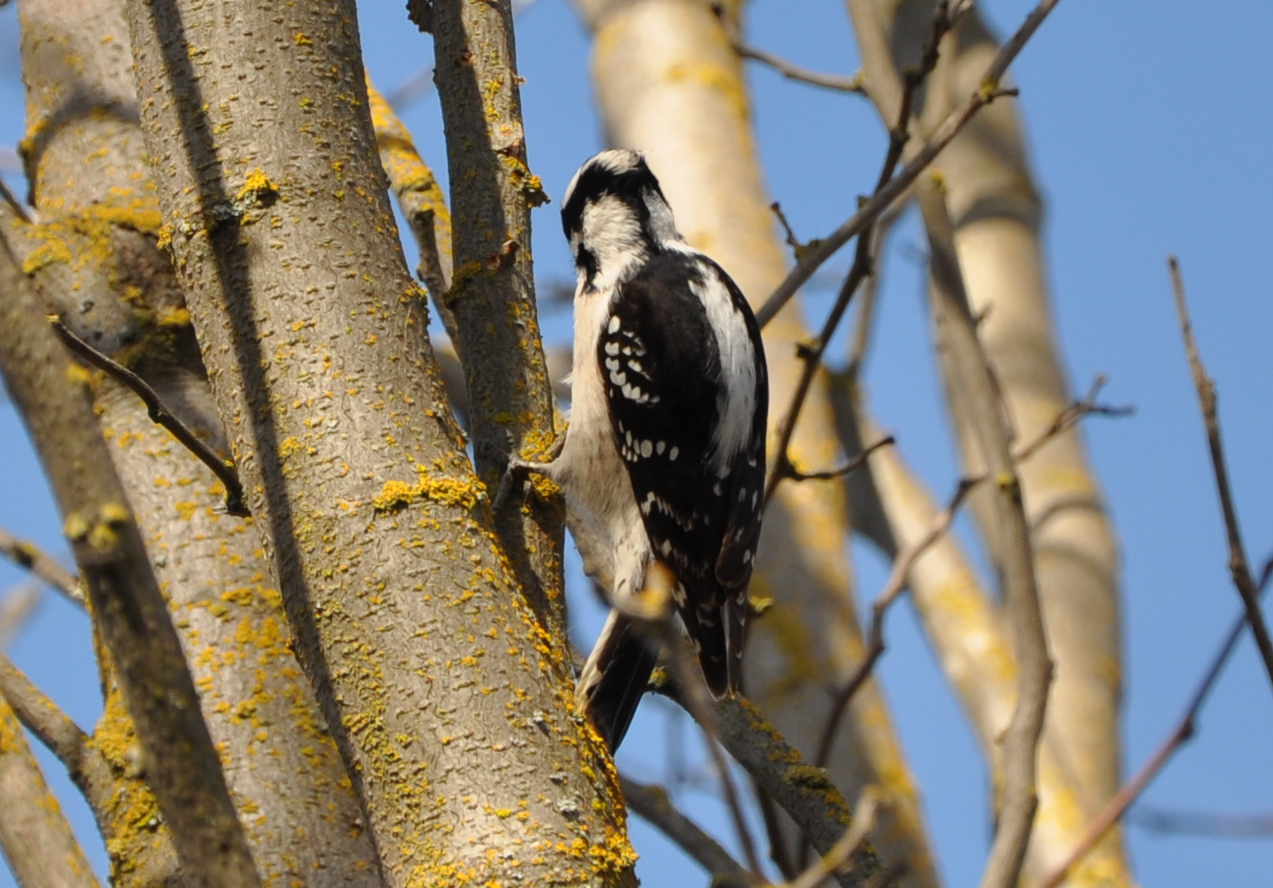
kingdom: Animalia
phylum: Chordata
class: Aves
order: Piciformes
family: Picidae
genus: Dryobates
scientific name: Dryobates pubescens
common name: Downy woodpecker
